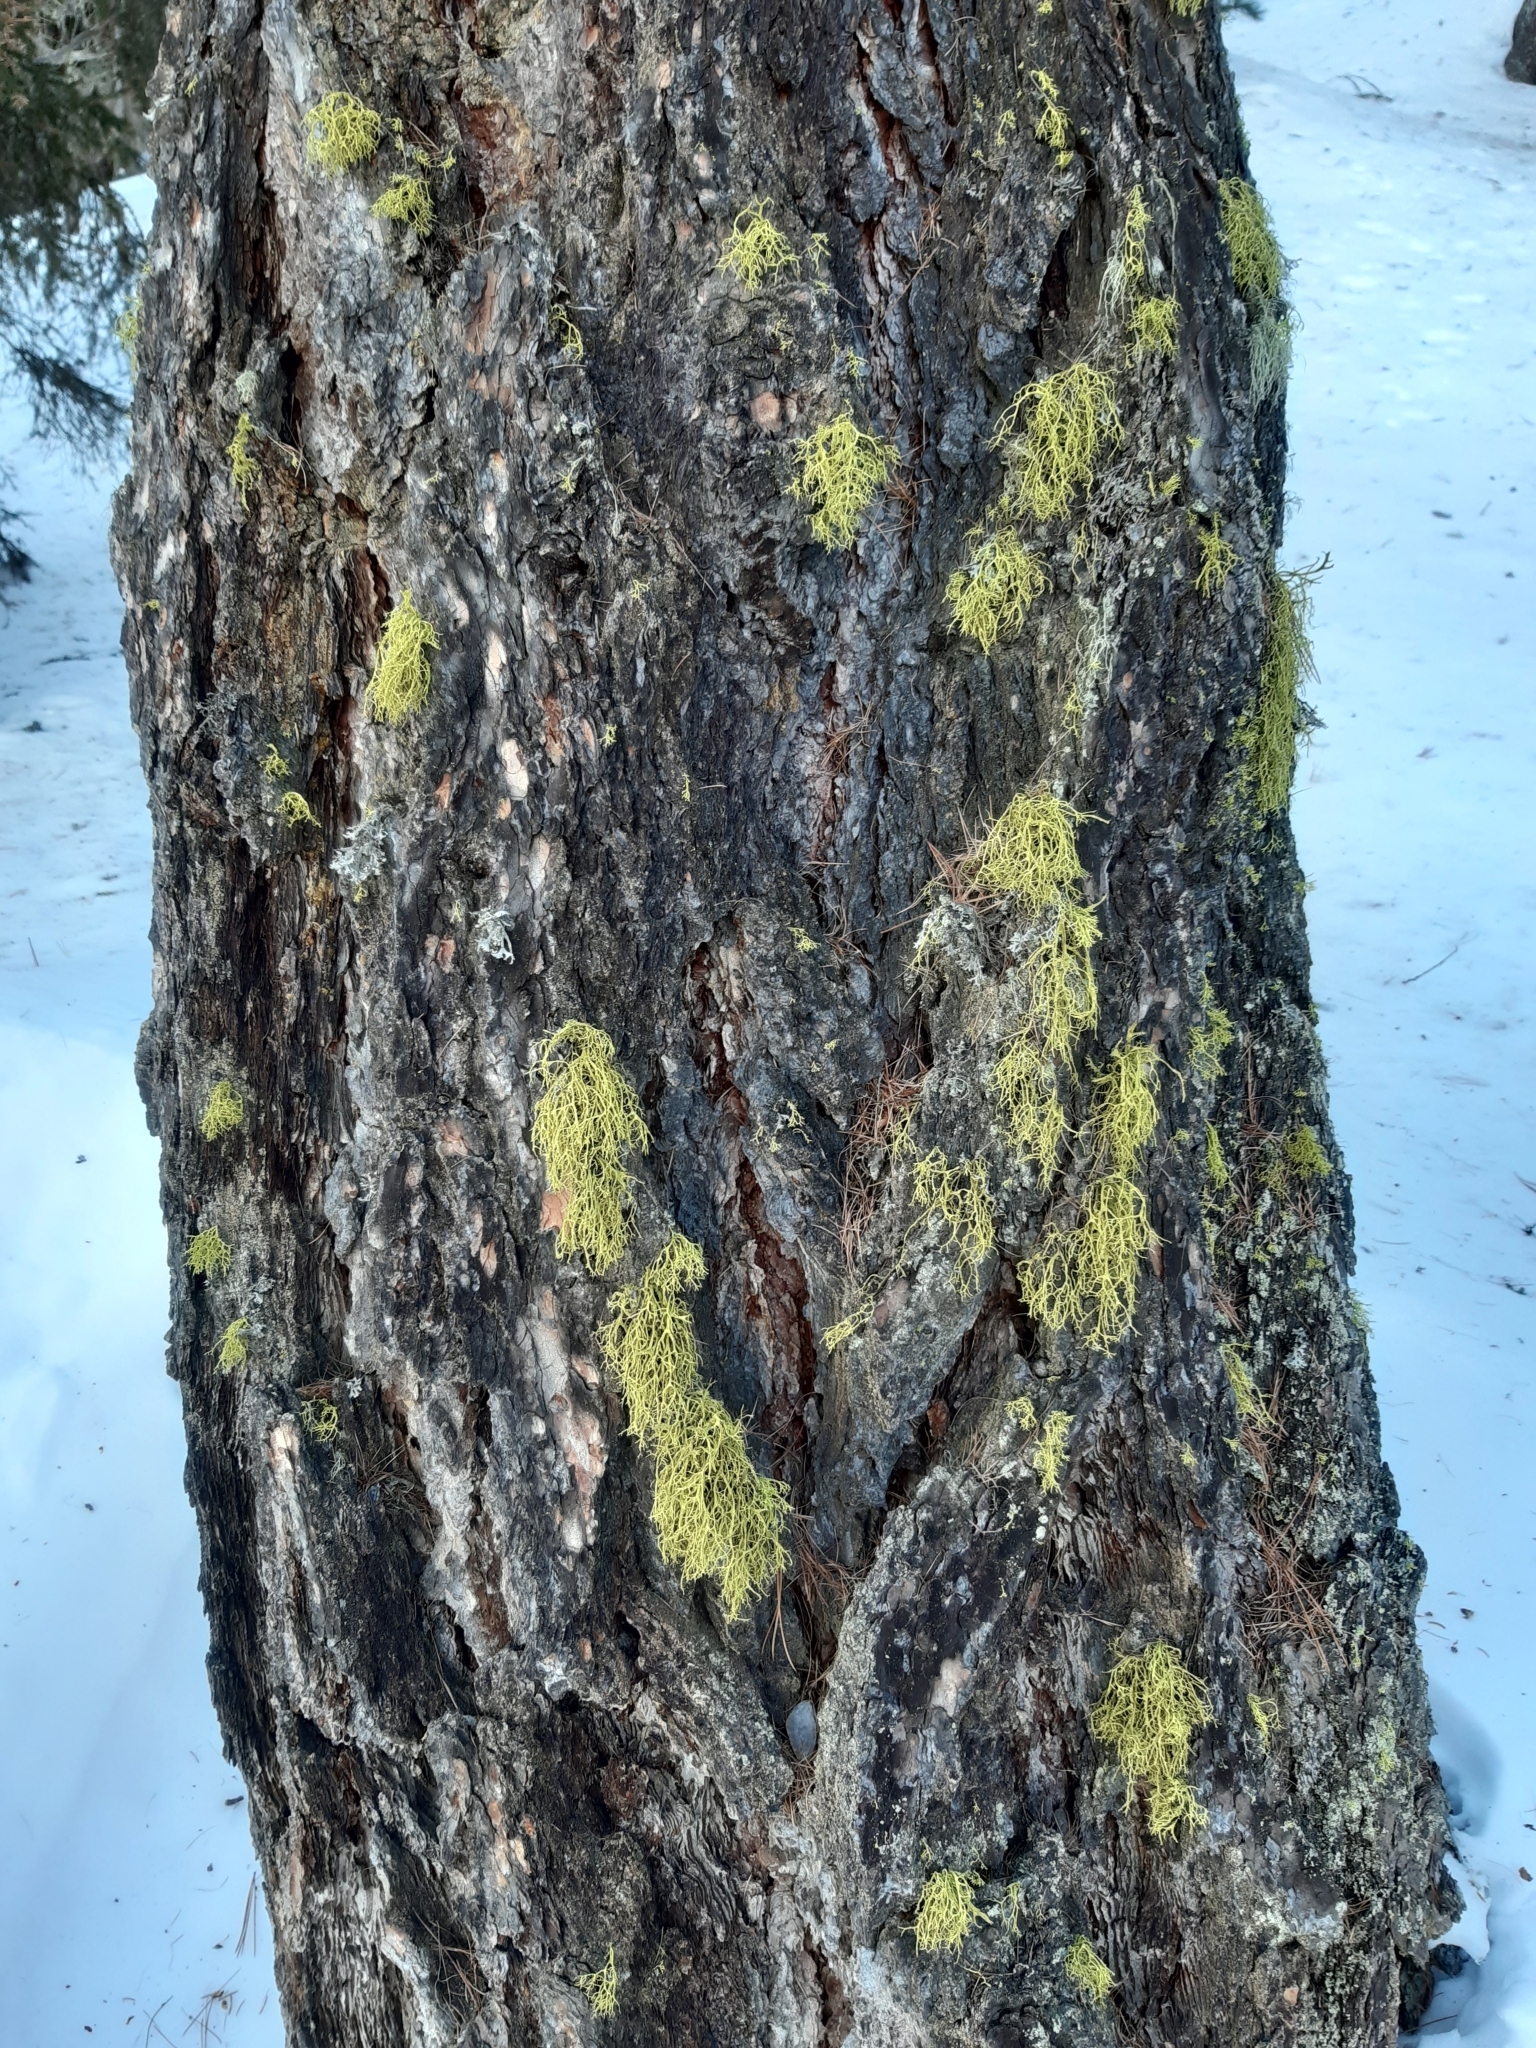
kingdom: Fungi
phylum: Ascomycota
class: Lecanoromycetes
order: Lecanorales
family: Parmeliaceae
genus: Letharia
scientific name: Letharia vulpina
